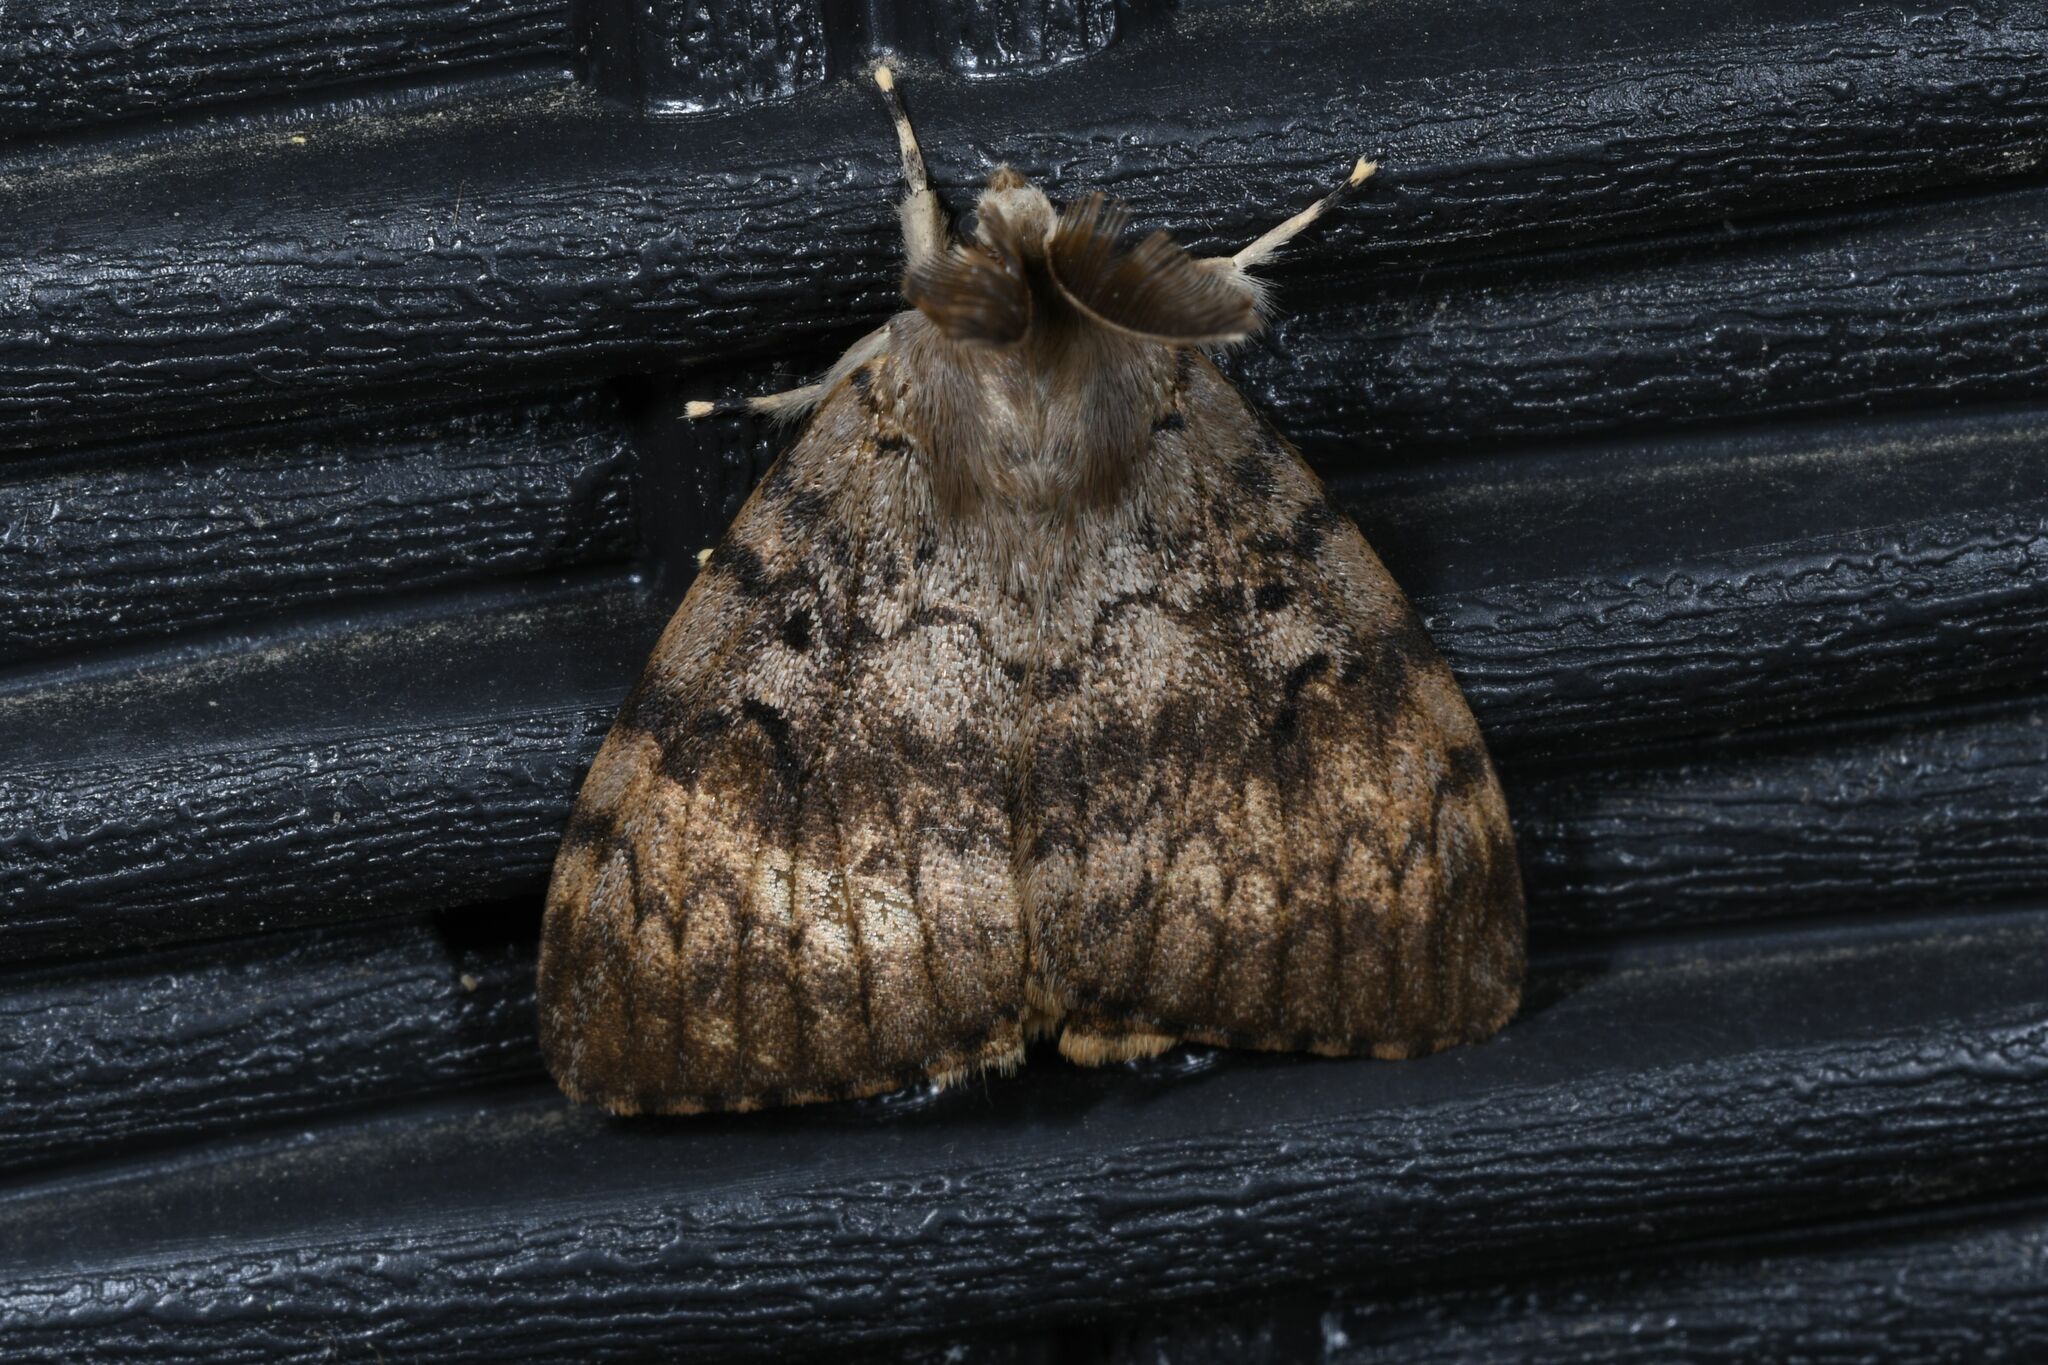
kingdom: Animalia
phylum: Arthropoda
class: Insecta
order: Lepidoptera
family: Erebidae
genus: Lymantria
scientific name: Lymantria dispar
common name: Gypsy moth
